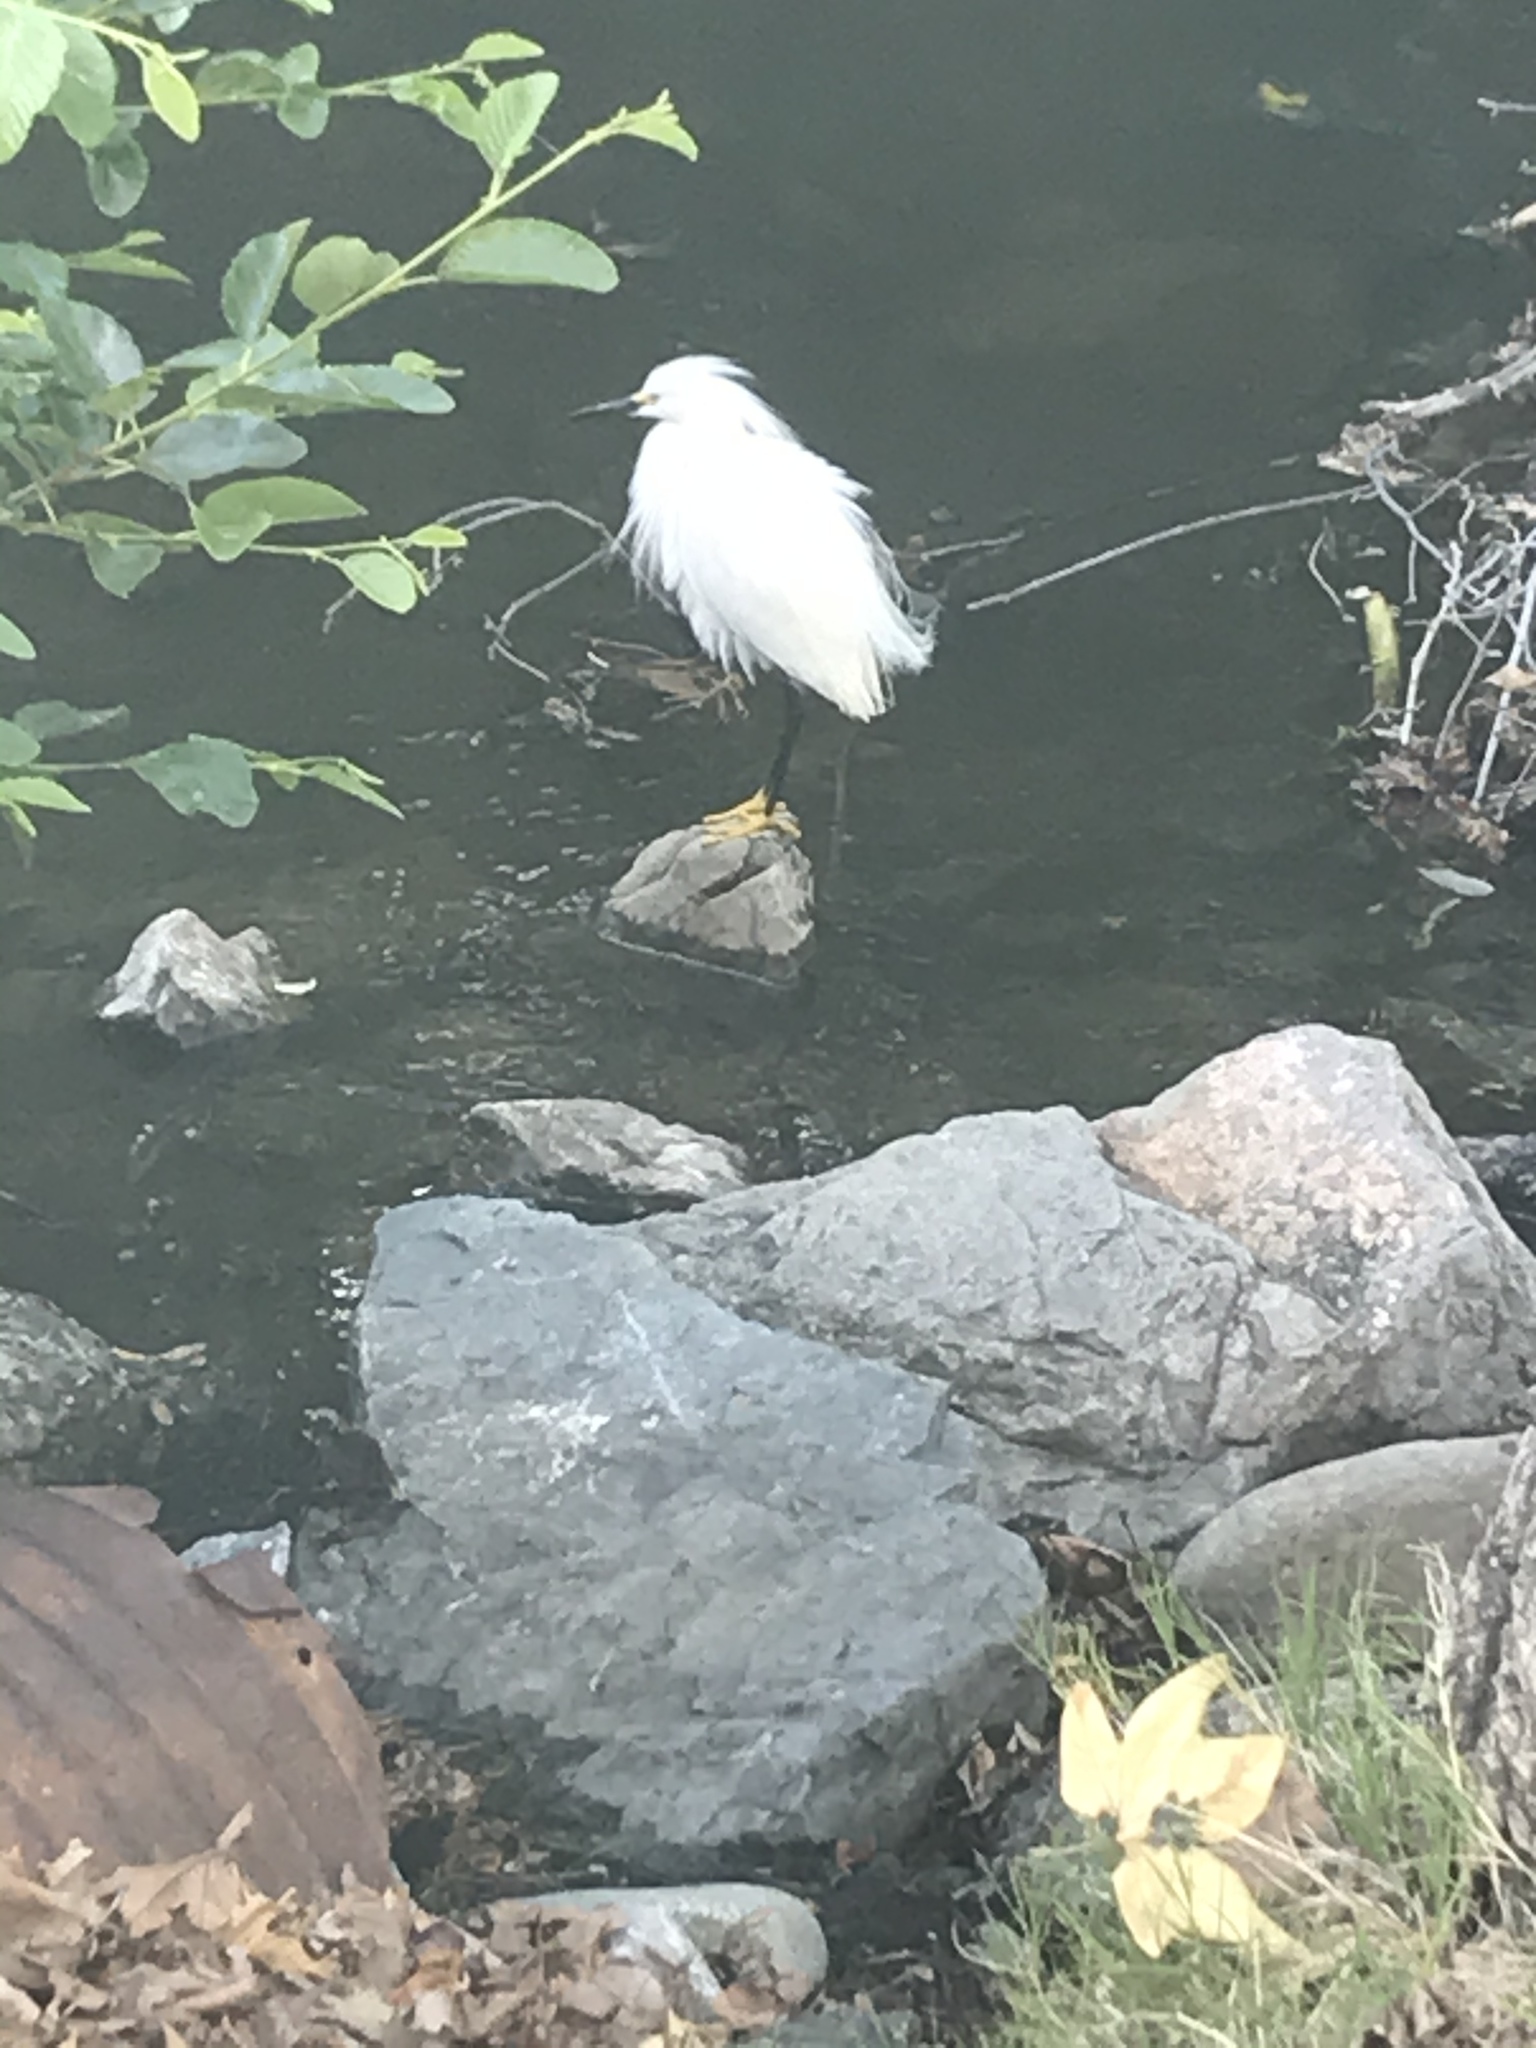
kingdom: Animalia
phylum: Chordata
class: Aves
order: Pelecaniformes
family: Ardeidae
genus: Egretta
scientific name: Egretta thula
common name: Snowy egret
